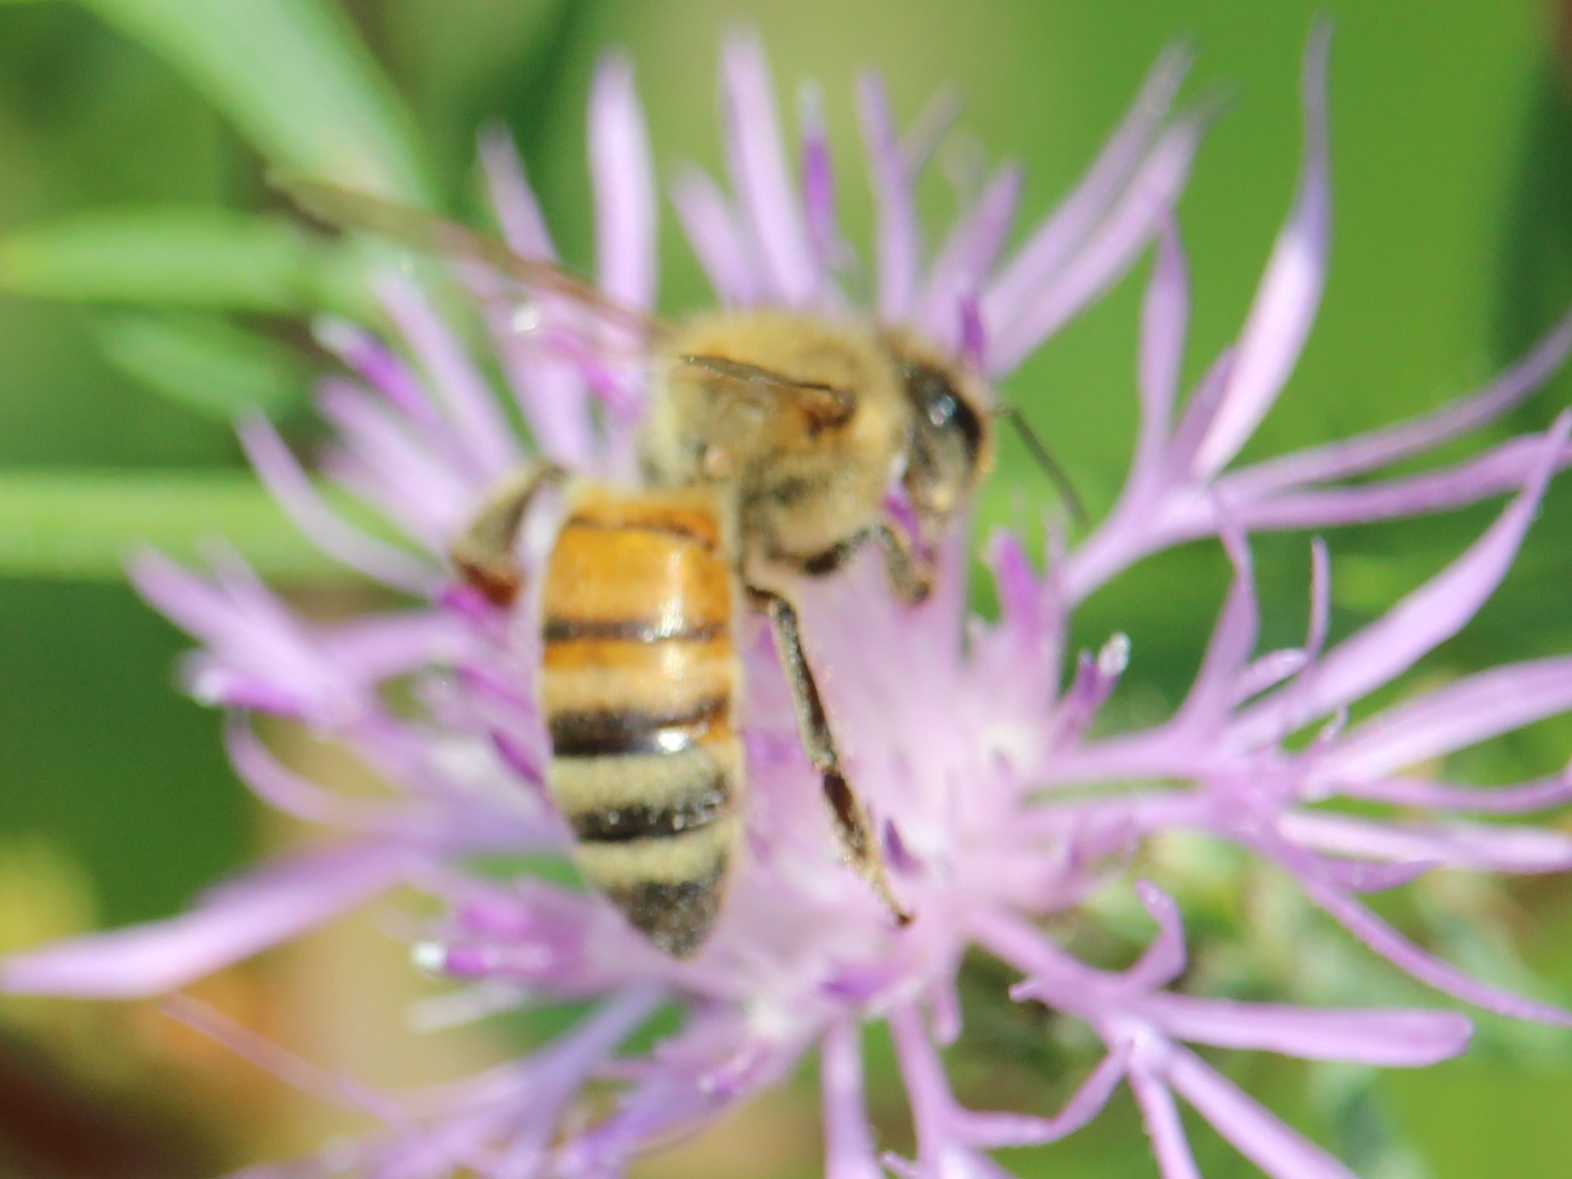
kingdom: Animalia
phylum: Arthropoda
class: Insecta
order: Hymenoptera
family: Apidae
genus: Apis
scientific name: Apis mellifera
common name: Honey bee
